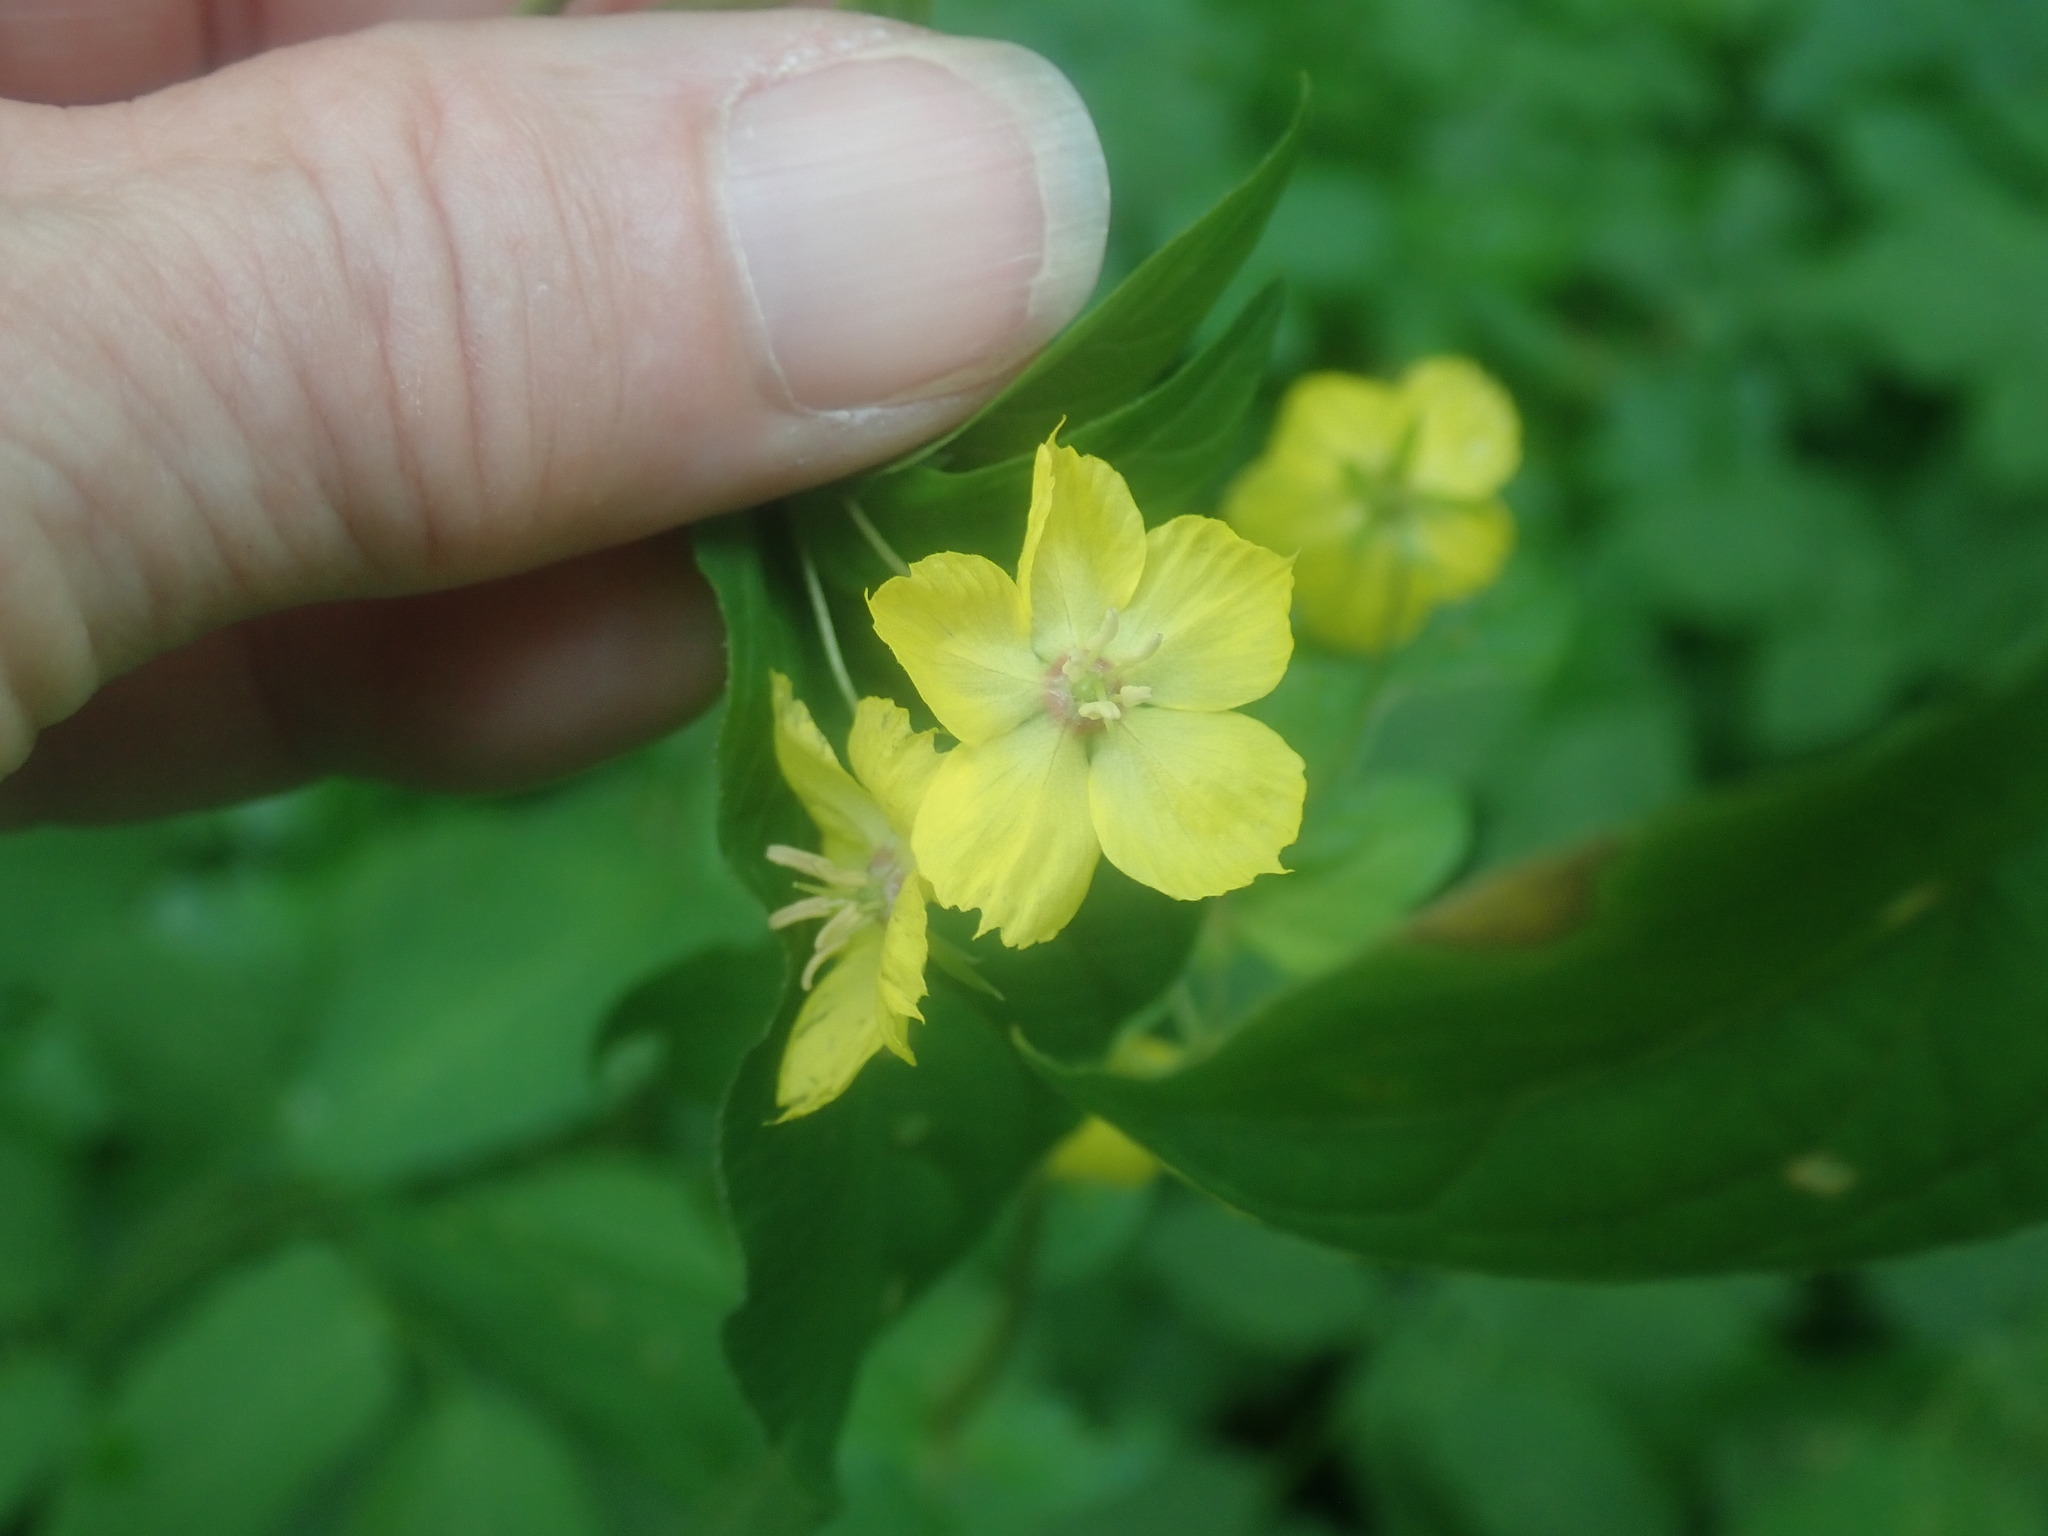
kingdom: Plantae
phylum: Tracheophyta
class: Magnoliopsida
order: Ericales
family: Primulaceae
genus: Lysimachia
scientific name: Lysimachia ciliata
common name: Fringed loosestrife
